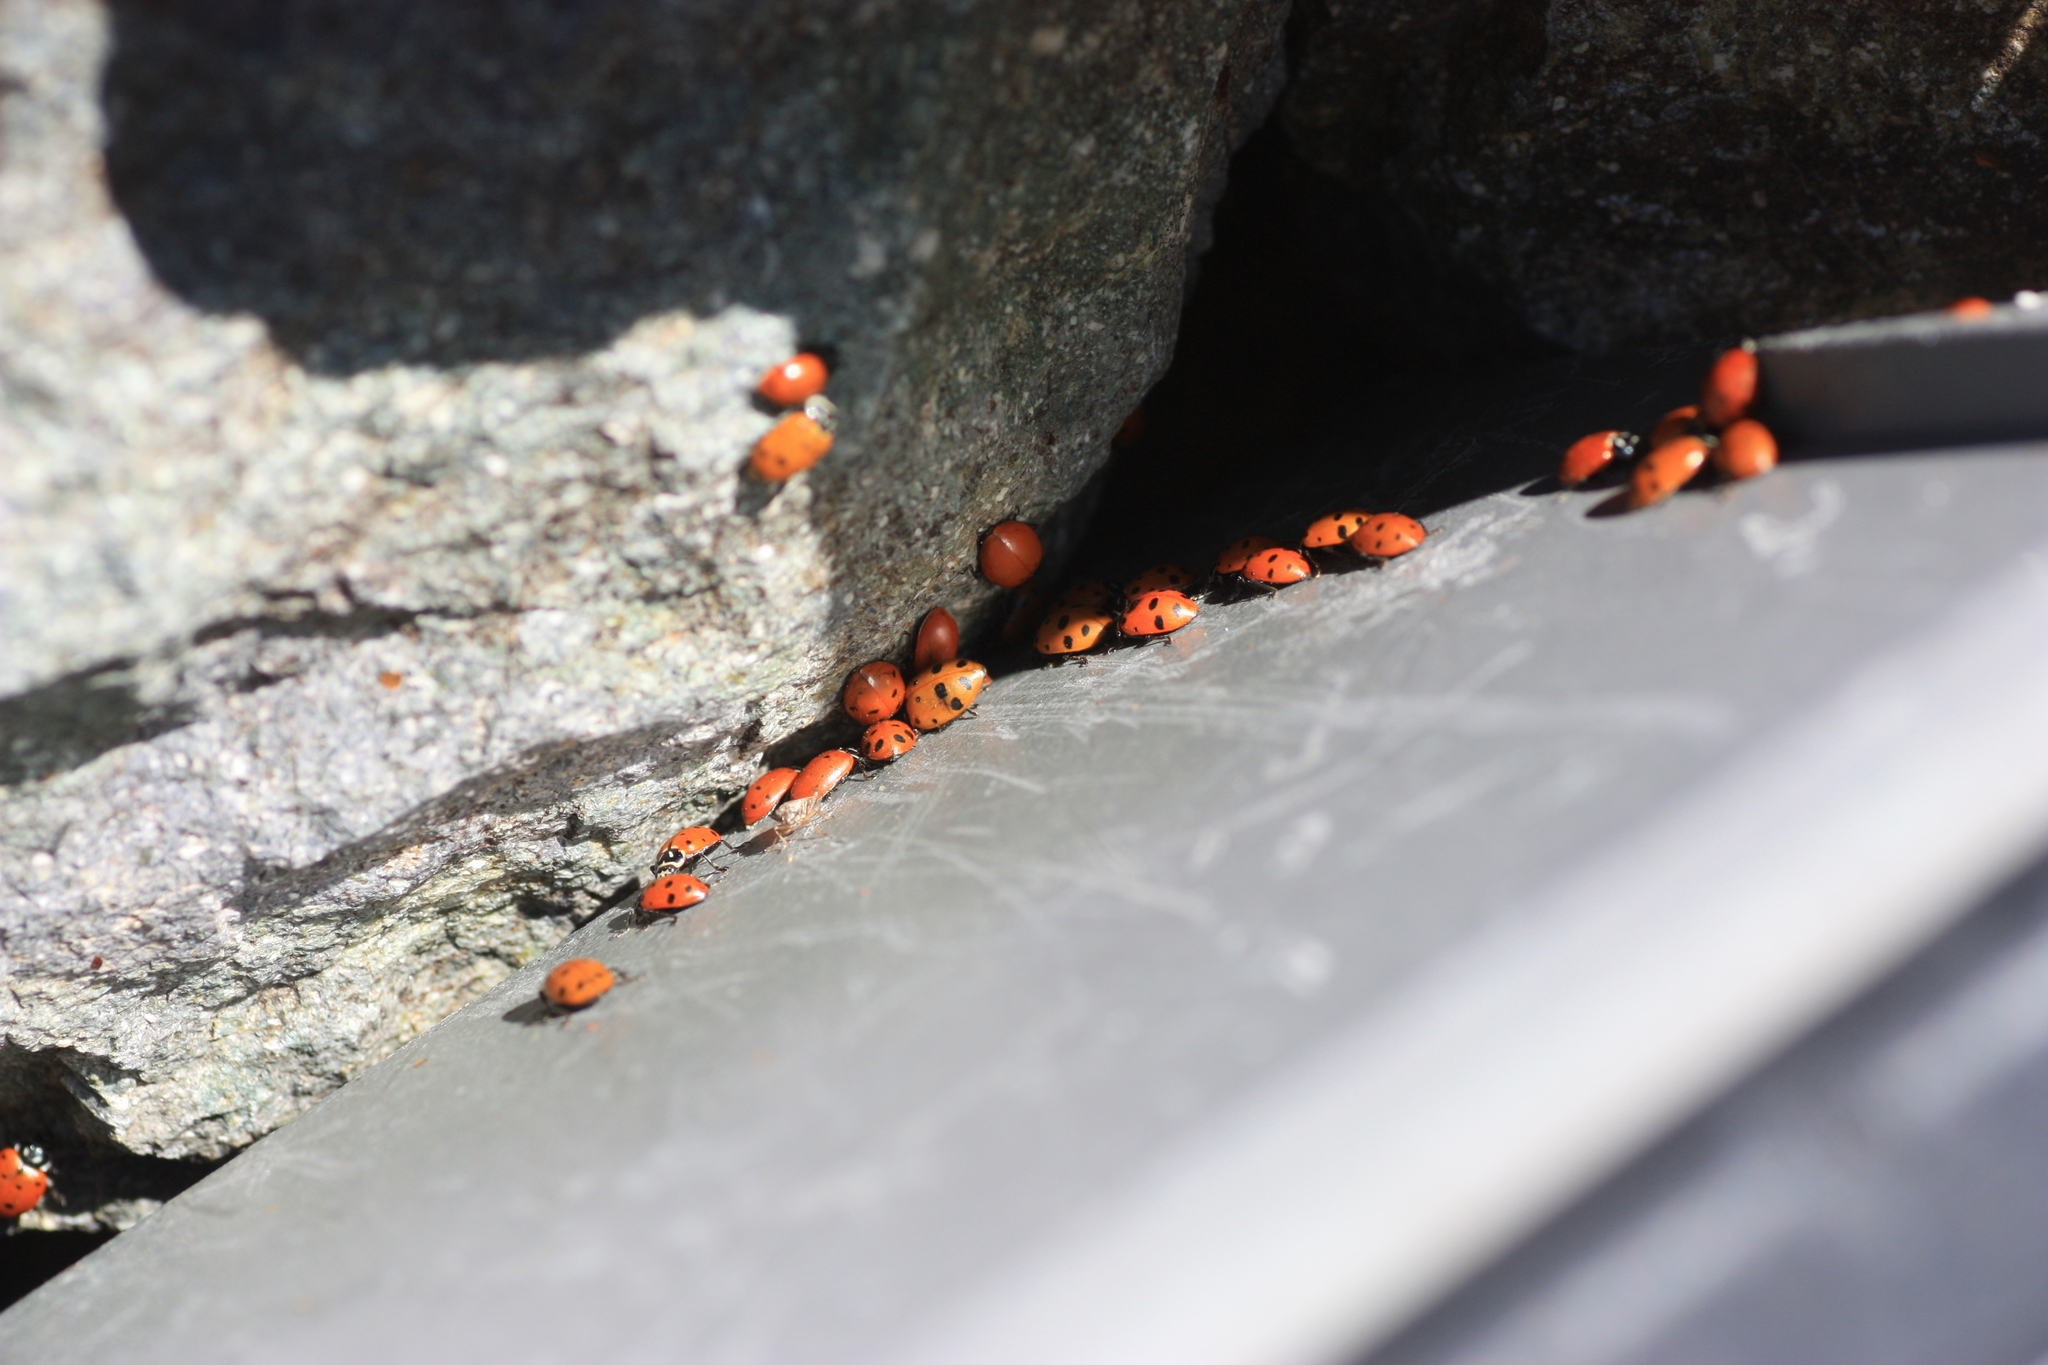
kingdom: Animalia
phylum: Arthropoda
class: Insecta
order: Coleoptera
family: Coccinellidae
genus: Hippodamia
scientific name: Hippodamia convergens
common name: Convergent lady beetle
